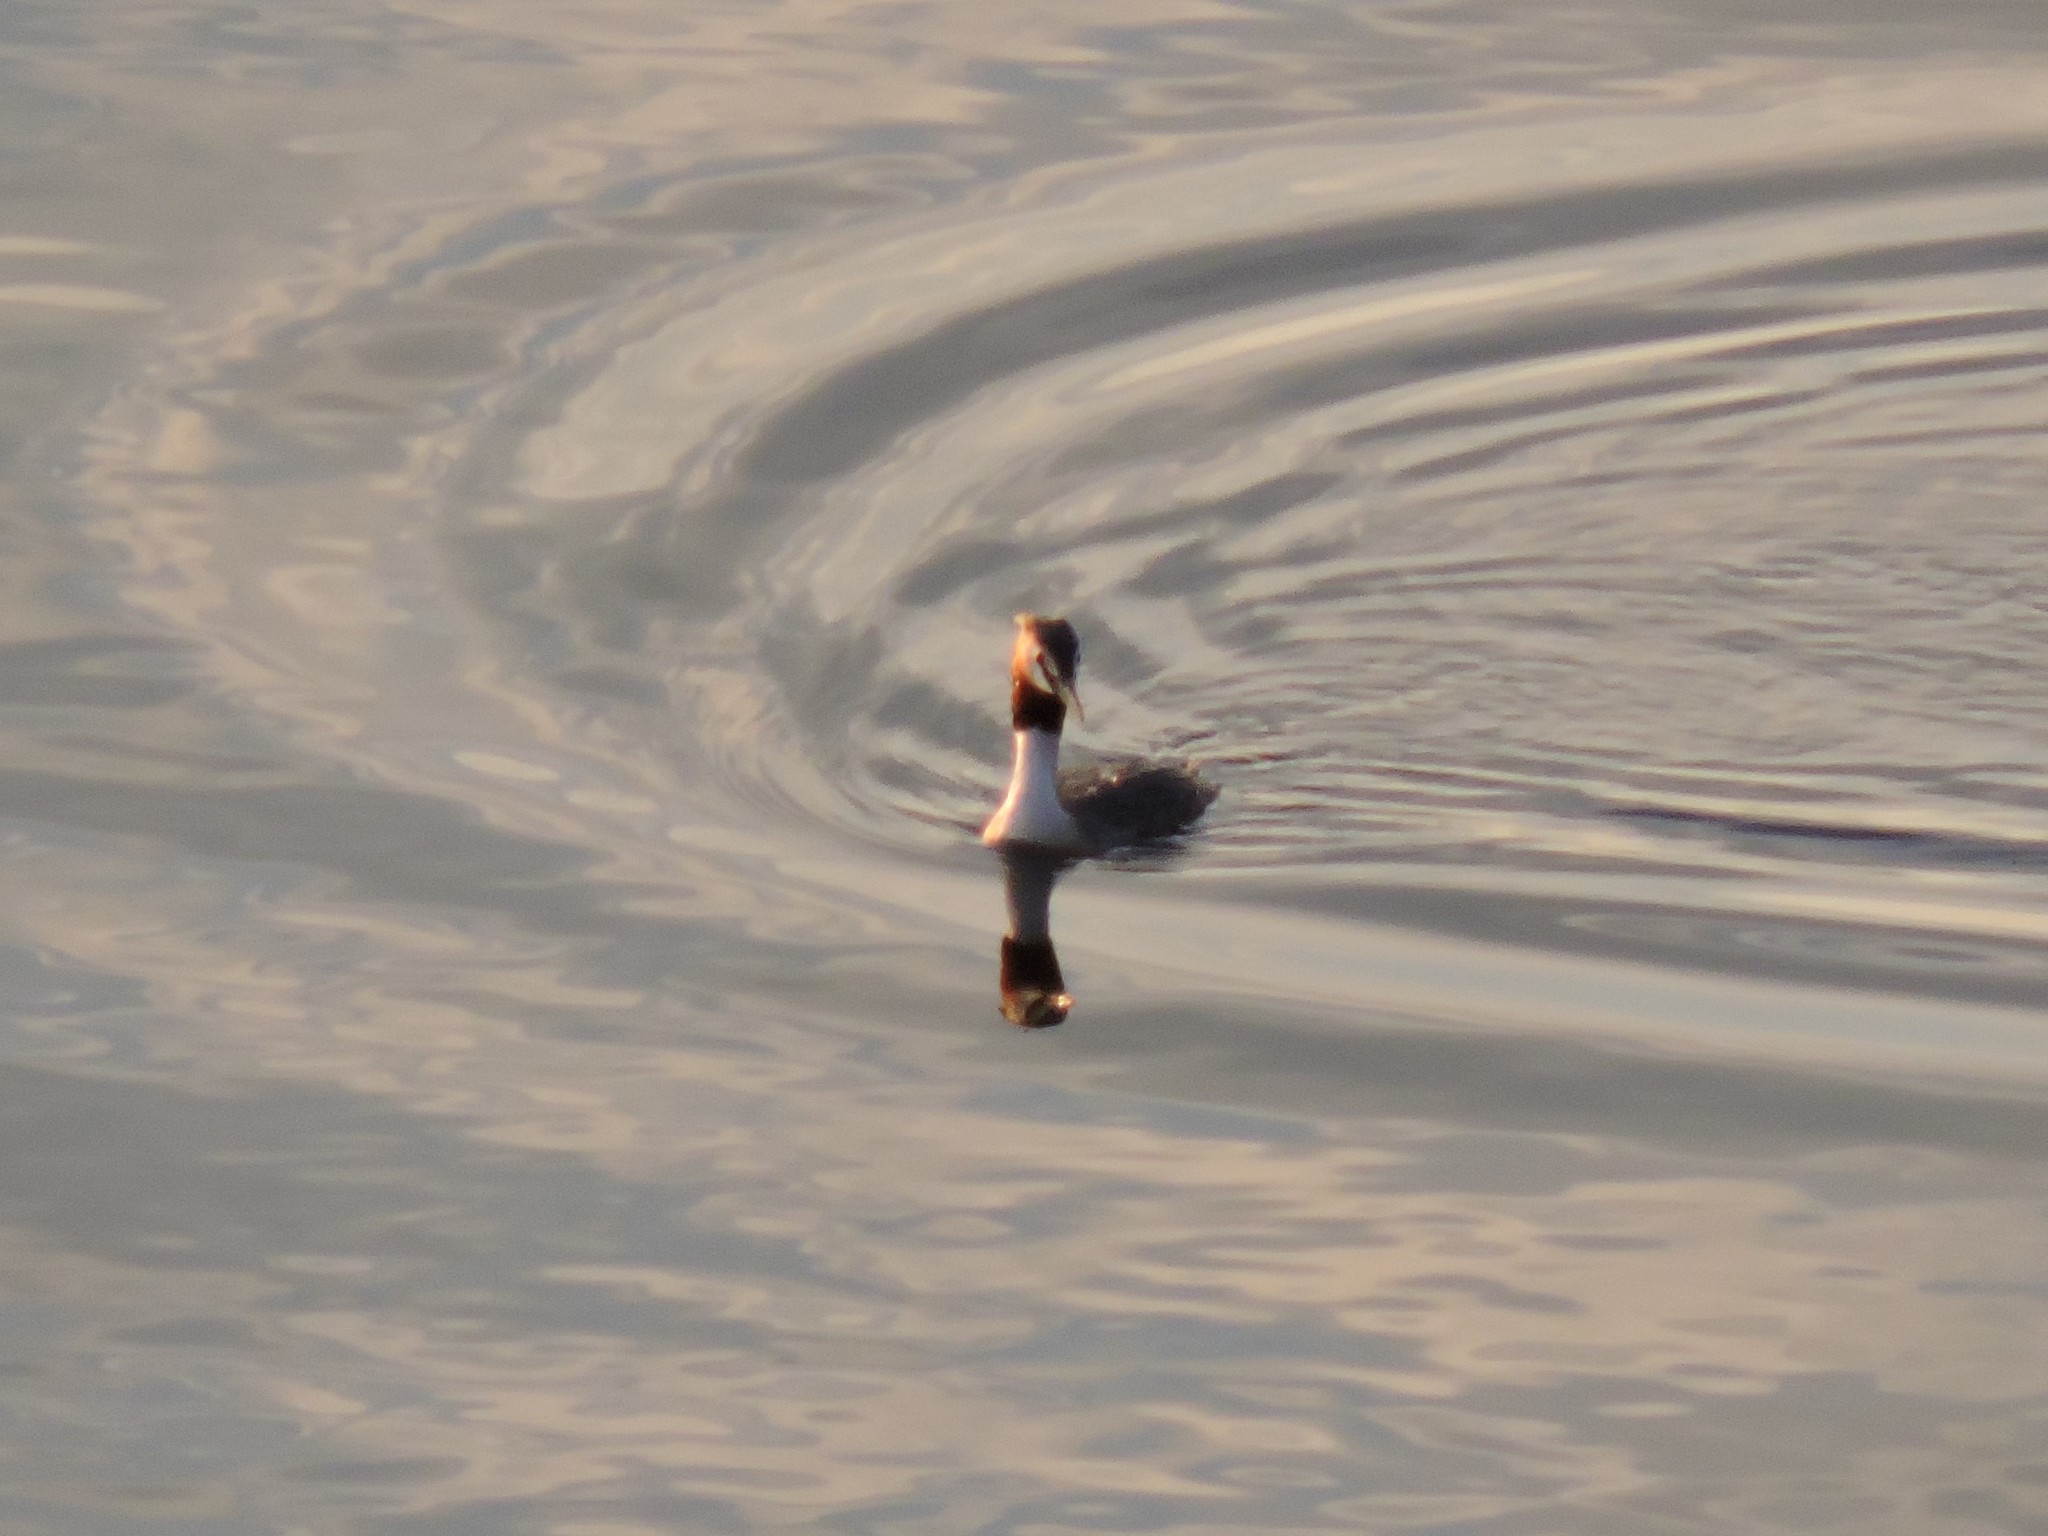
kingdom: Animalia
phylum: Chordata
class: Aves
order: Podicipediformes
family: Podicipedidae
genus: Podiceps
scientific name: Podiceps cristatus
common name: Great crested grebe
